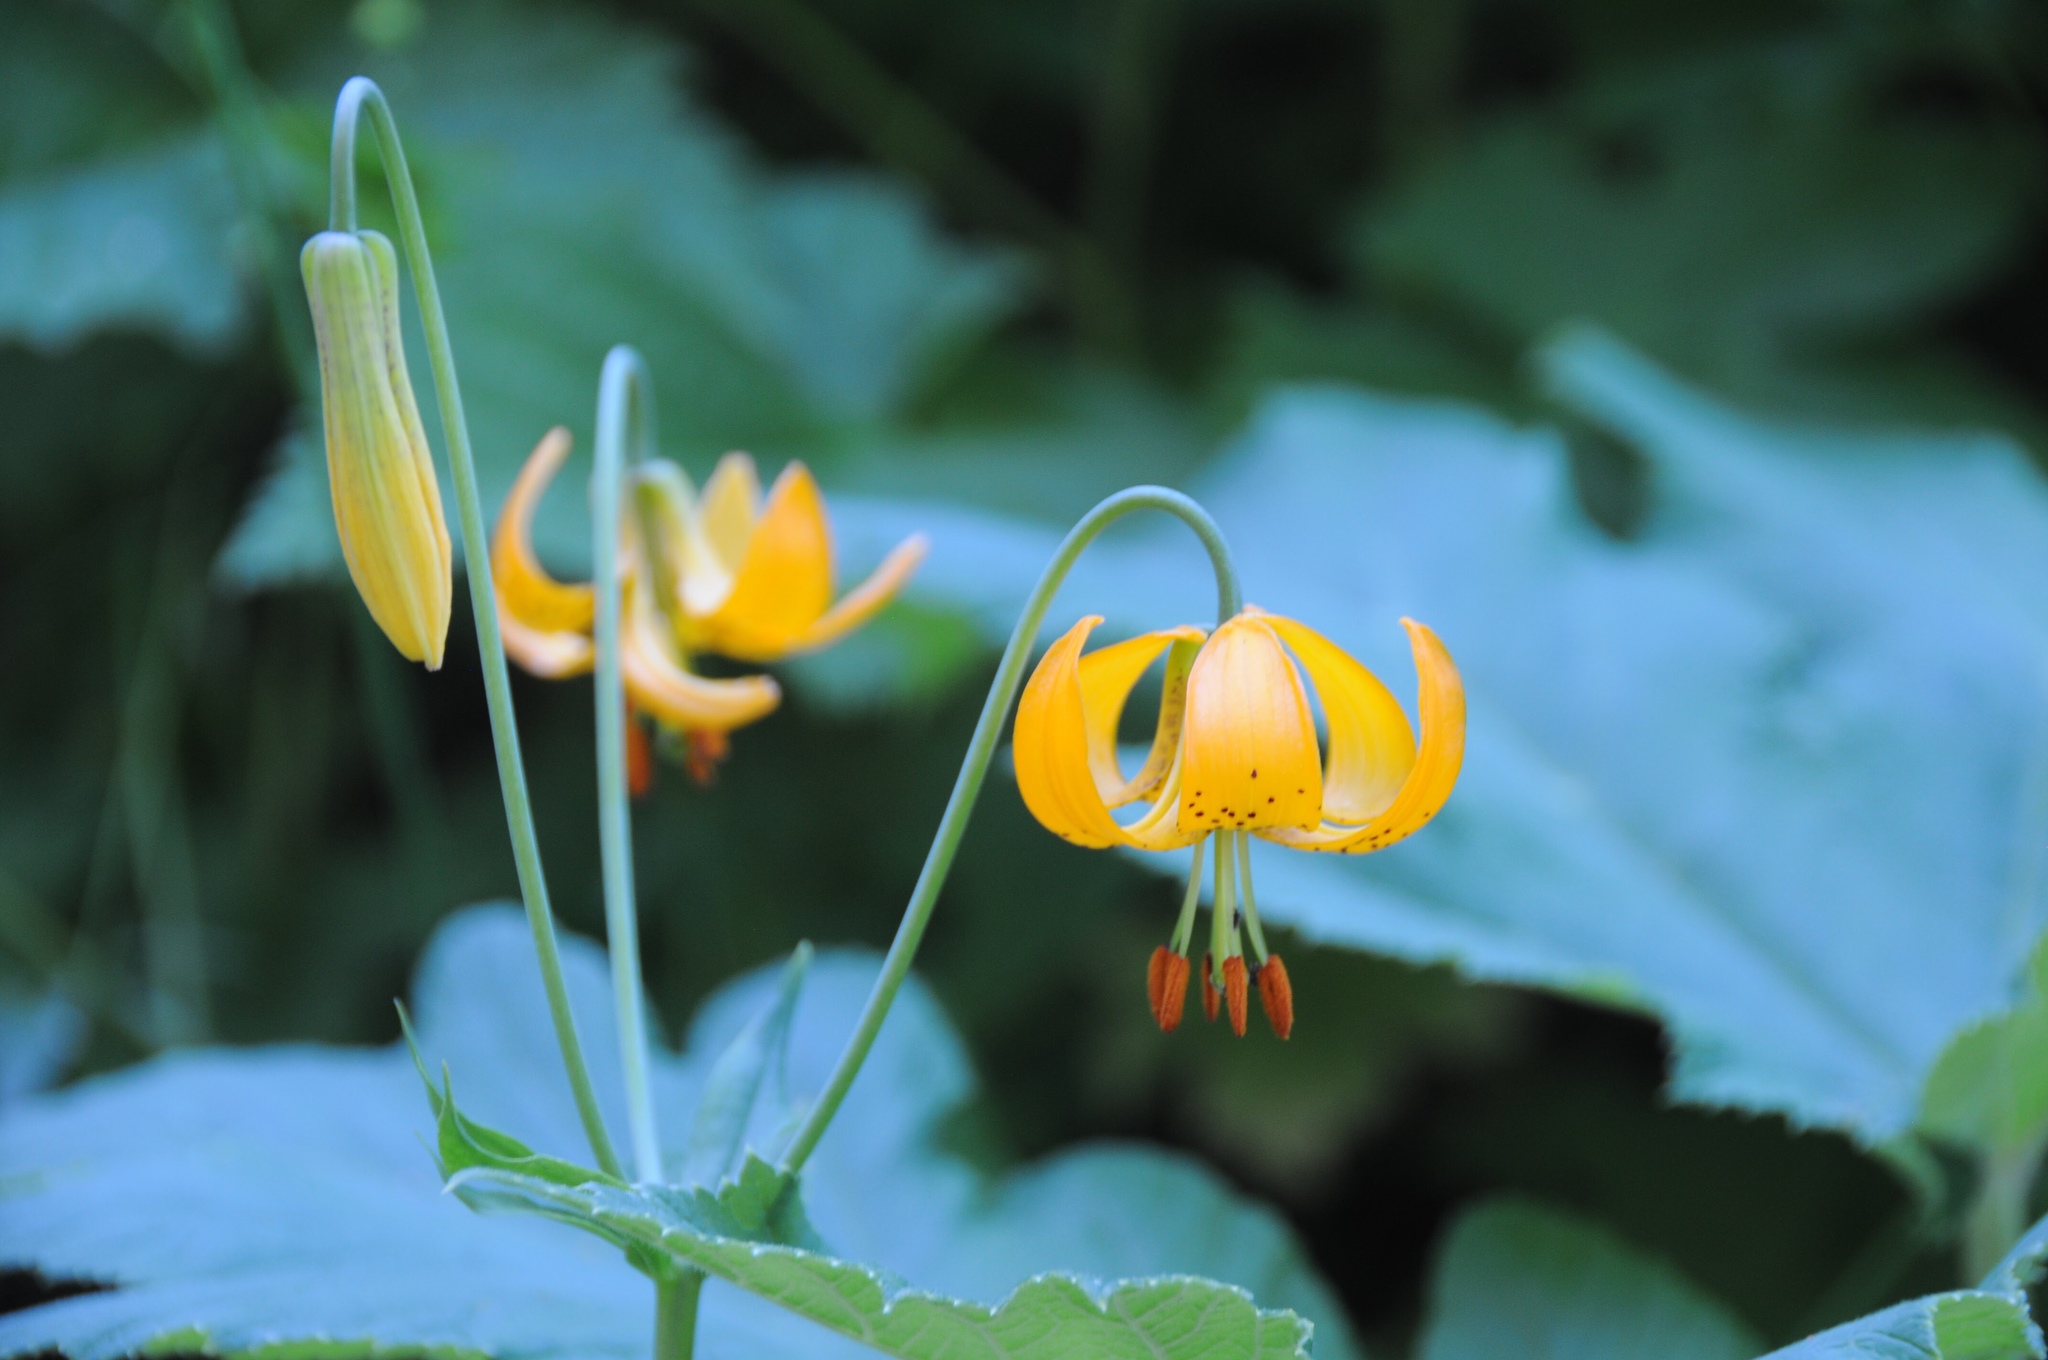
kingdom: Plantae
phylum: Tracheophyta
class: Liliopsida
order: Liliales
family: Liliaceae
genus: Lilium
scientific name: Lilium columbianum
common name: Columbia lily
